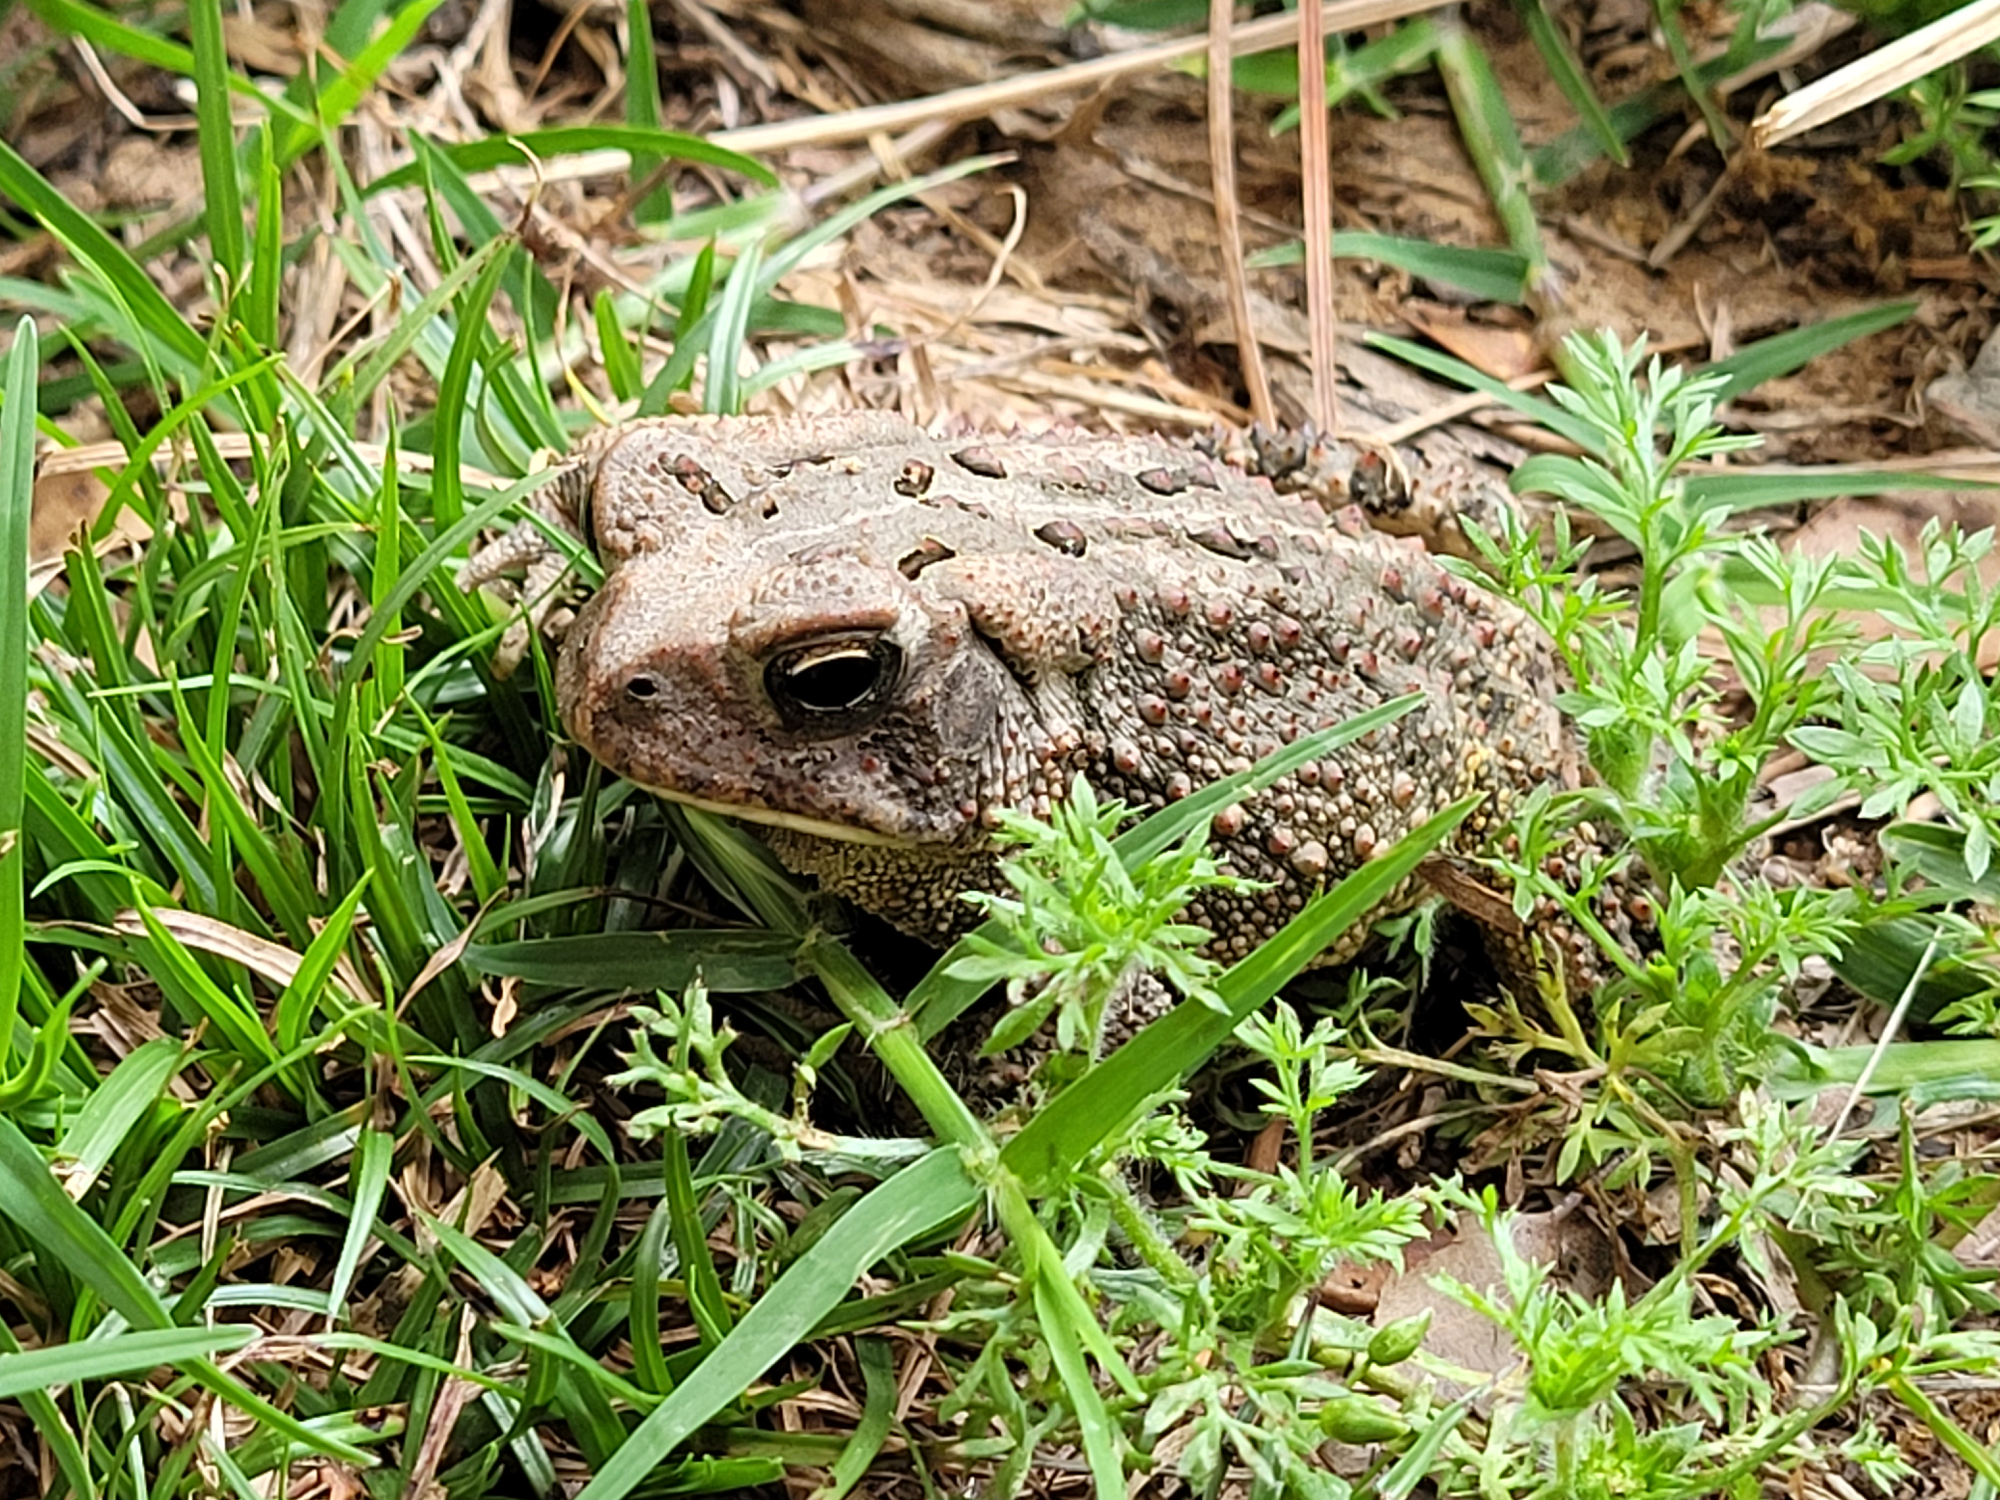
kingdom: Animalia
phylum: Chordata
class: Amphibia
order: Anura
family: Bufonidae
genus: Anaxyrus
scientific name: Anaxyrus fowleri
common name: Fowler's toad
